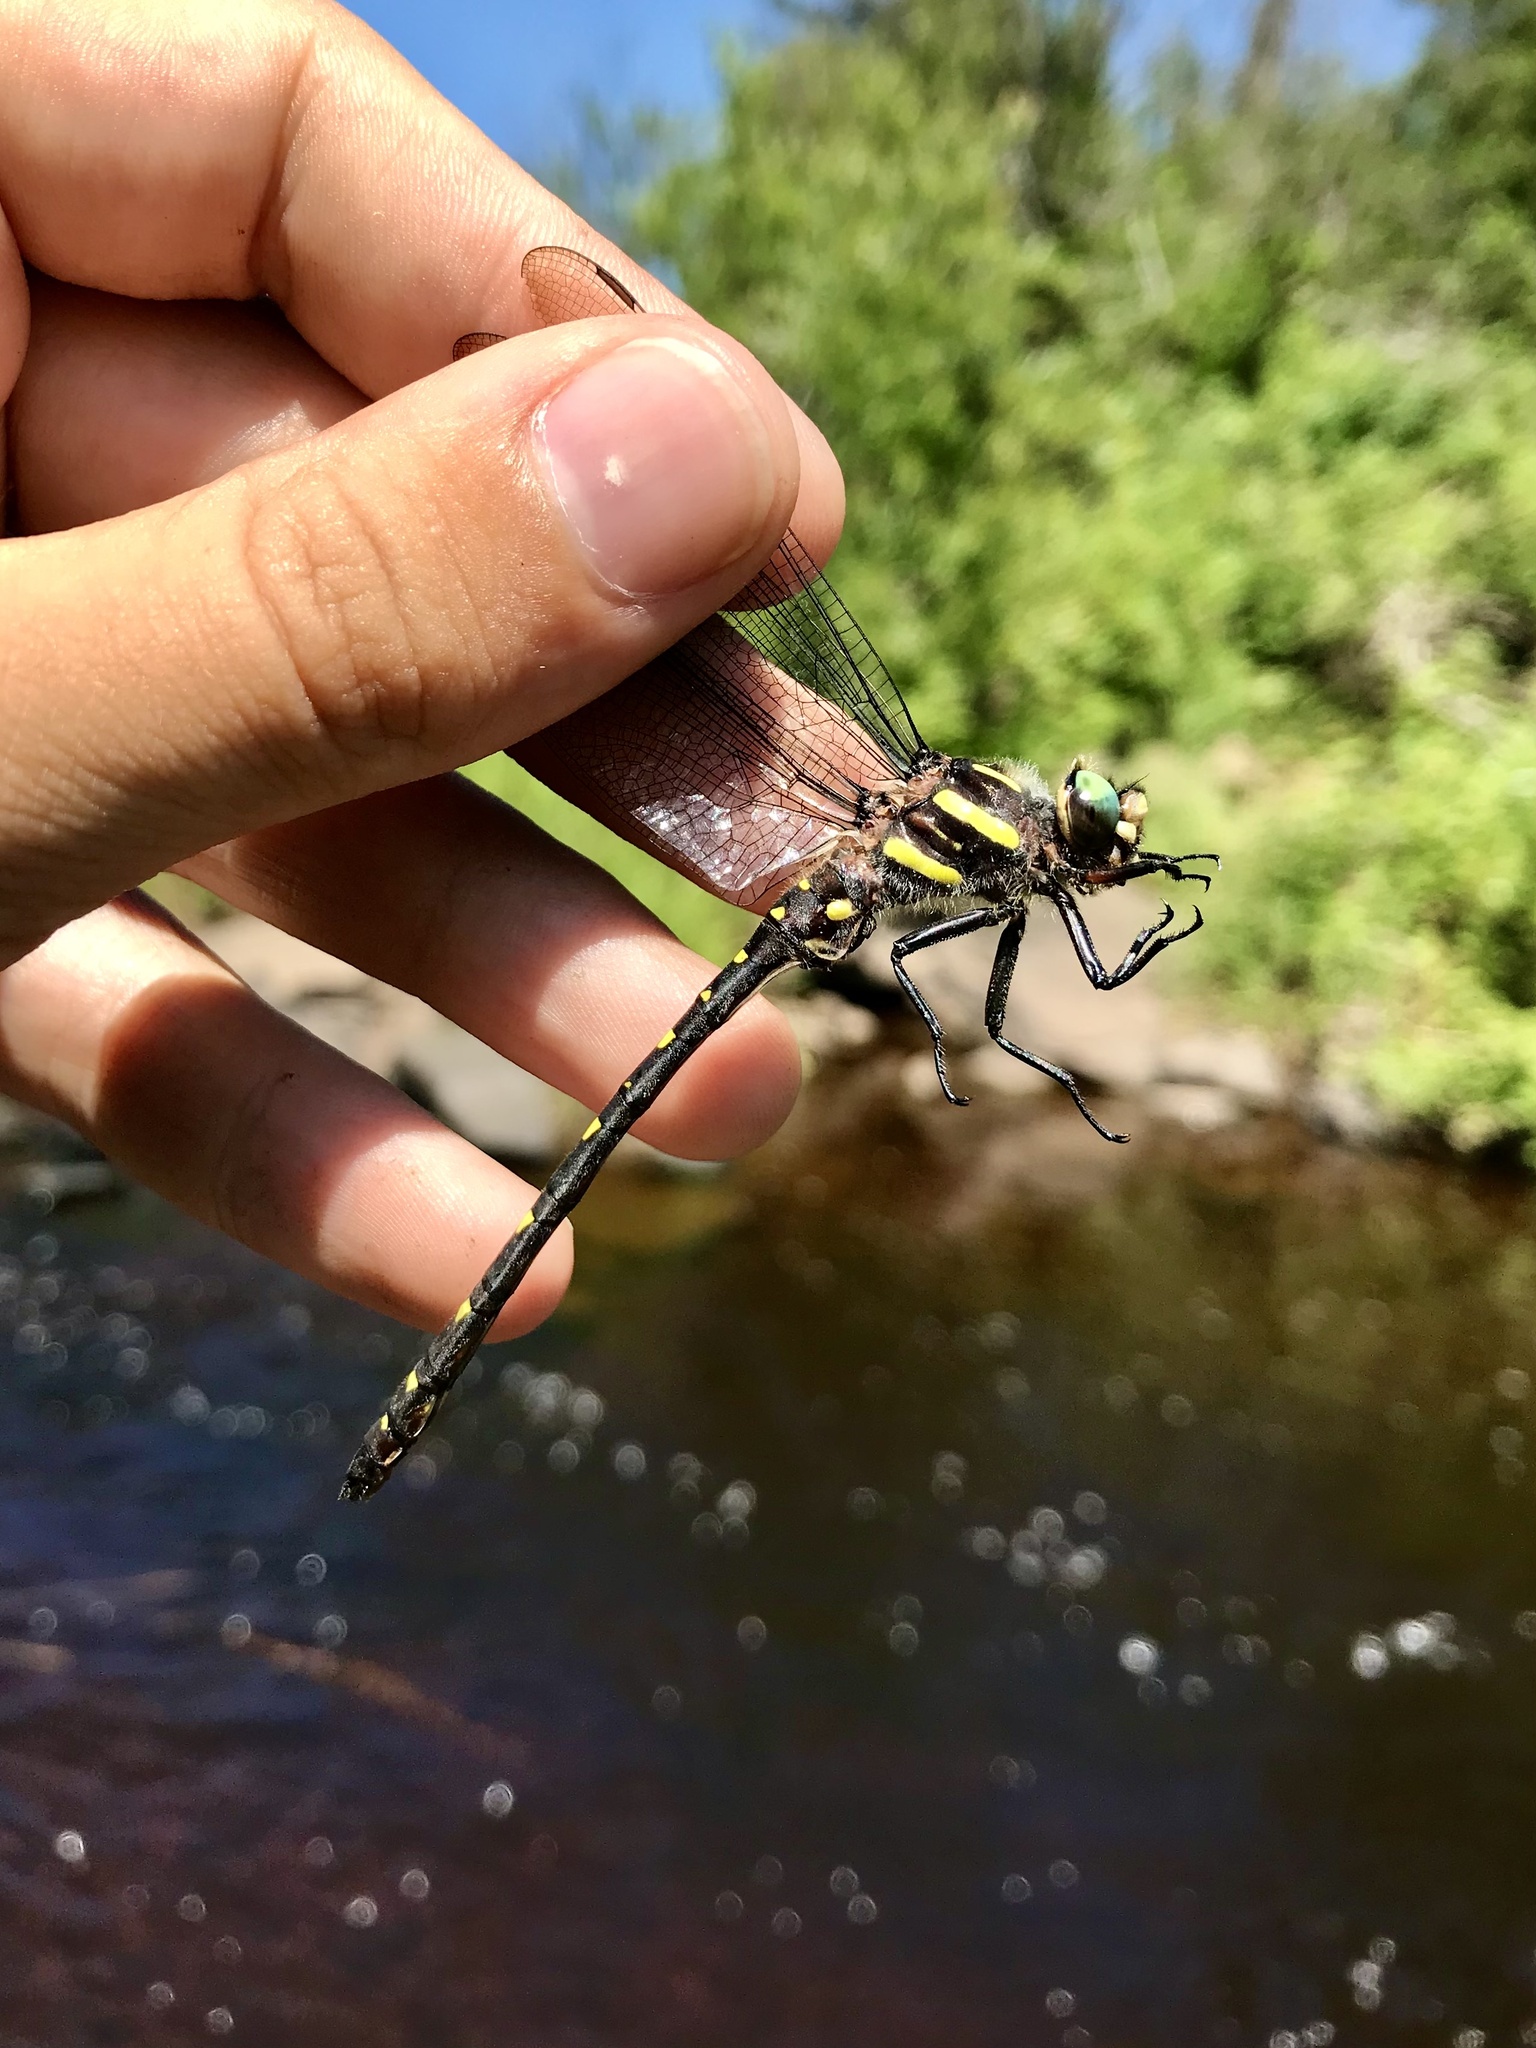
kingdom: Animalia
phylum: Arthropoda
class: Insecta
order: Odonata
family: Cordulegastridae
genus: Cordulegaster
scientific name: Cordulegaster maculata
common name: Twin-spotted spiketail
